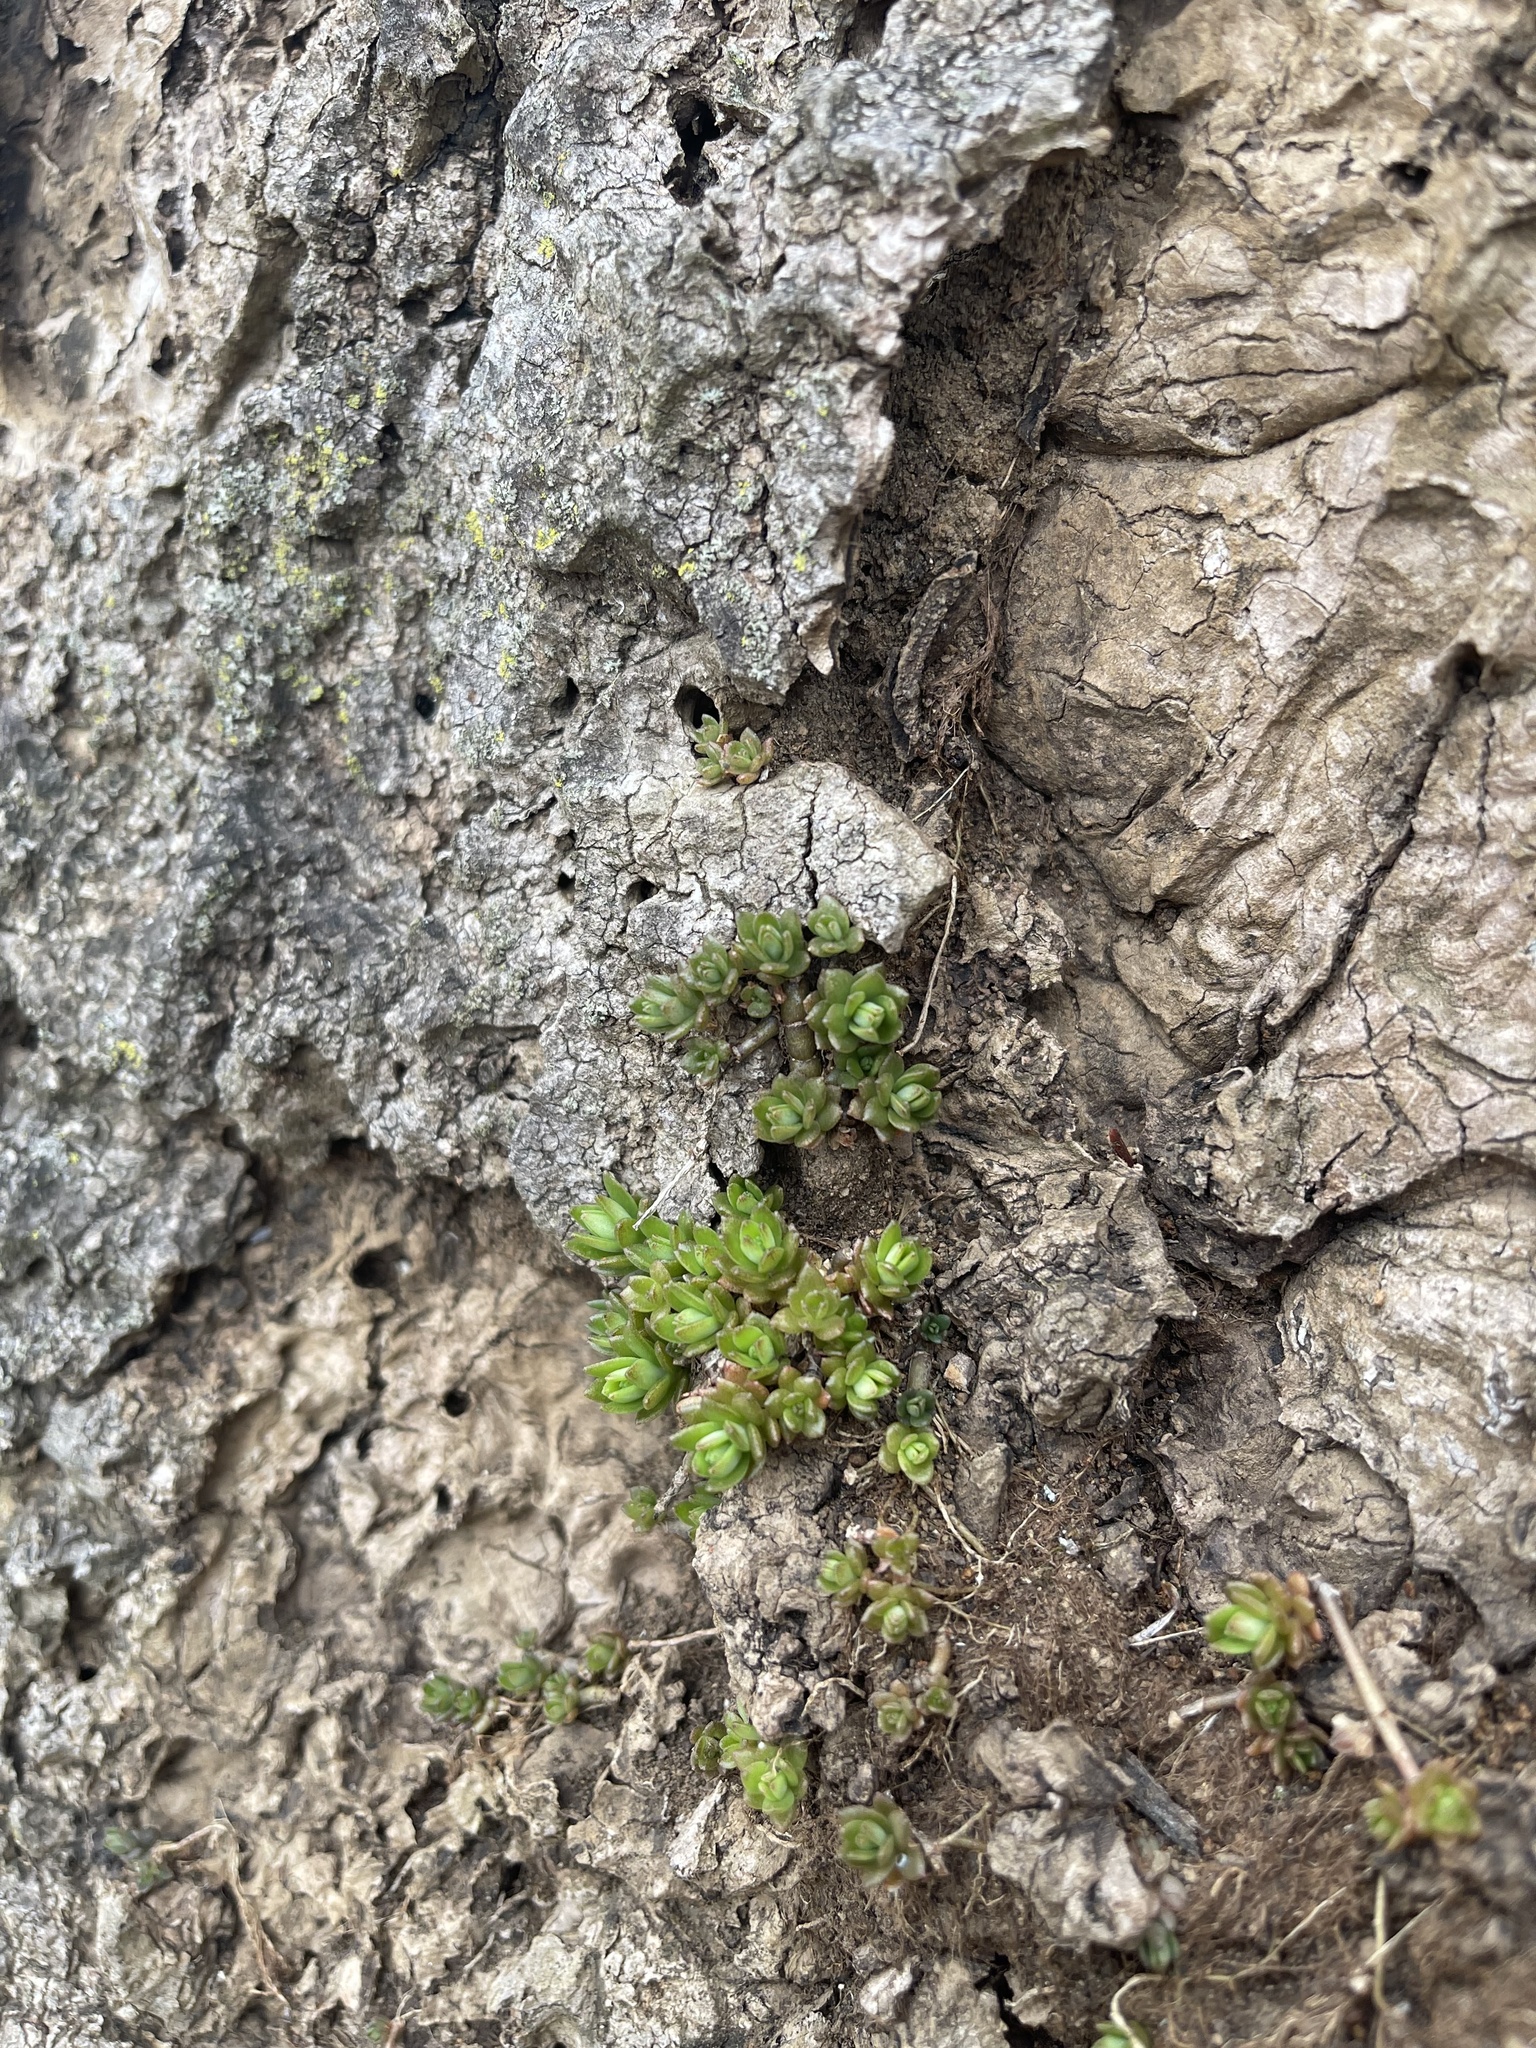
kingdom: Plantae
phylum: Tracheophyta
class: Magnoliopsida
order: Saxifragales
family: Crassulaceae
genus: Sedum
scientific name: Sedum sarmentosum
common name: Stringy stonecrop
